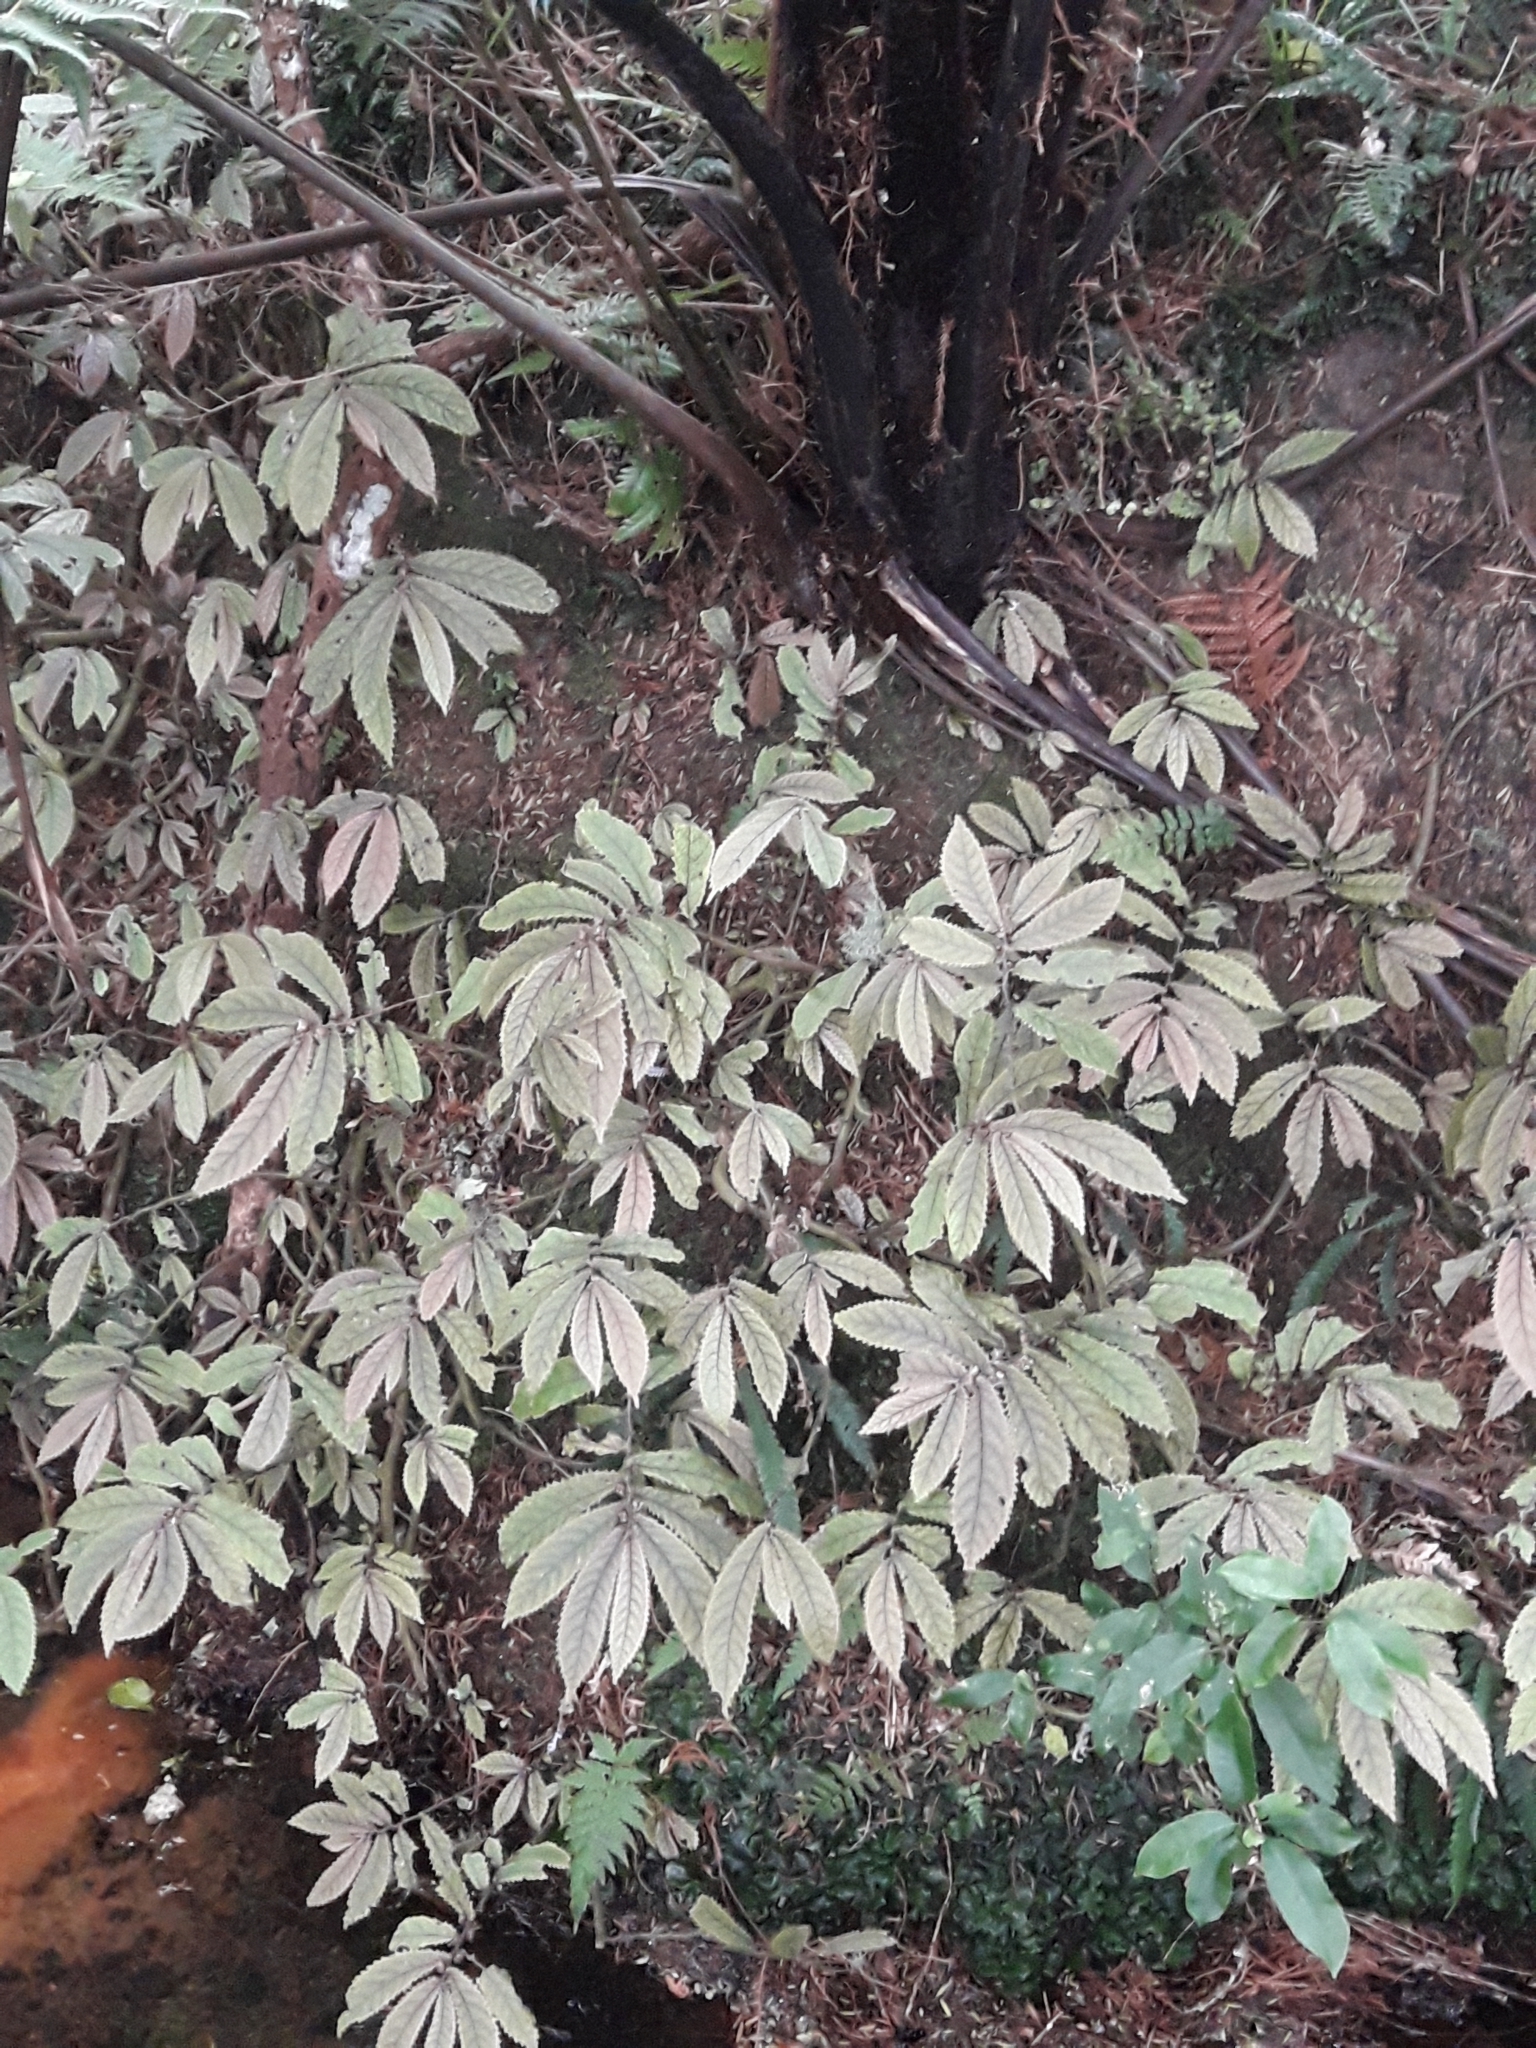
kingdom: Plantae
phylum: Tracheophyta
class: Magnoliopsida
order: Rosales
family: Urticaceae
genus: Elatostema
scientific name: Elatostema rugosum
